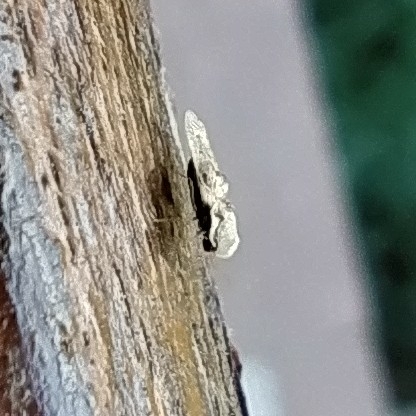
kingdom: Animalia
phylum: Arthropoda
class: Insecta
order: Hemiptera
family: Tingidae
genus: Corythucha
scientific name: Corythucha arcuata
